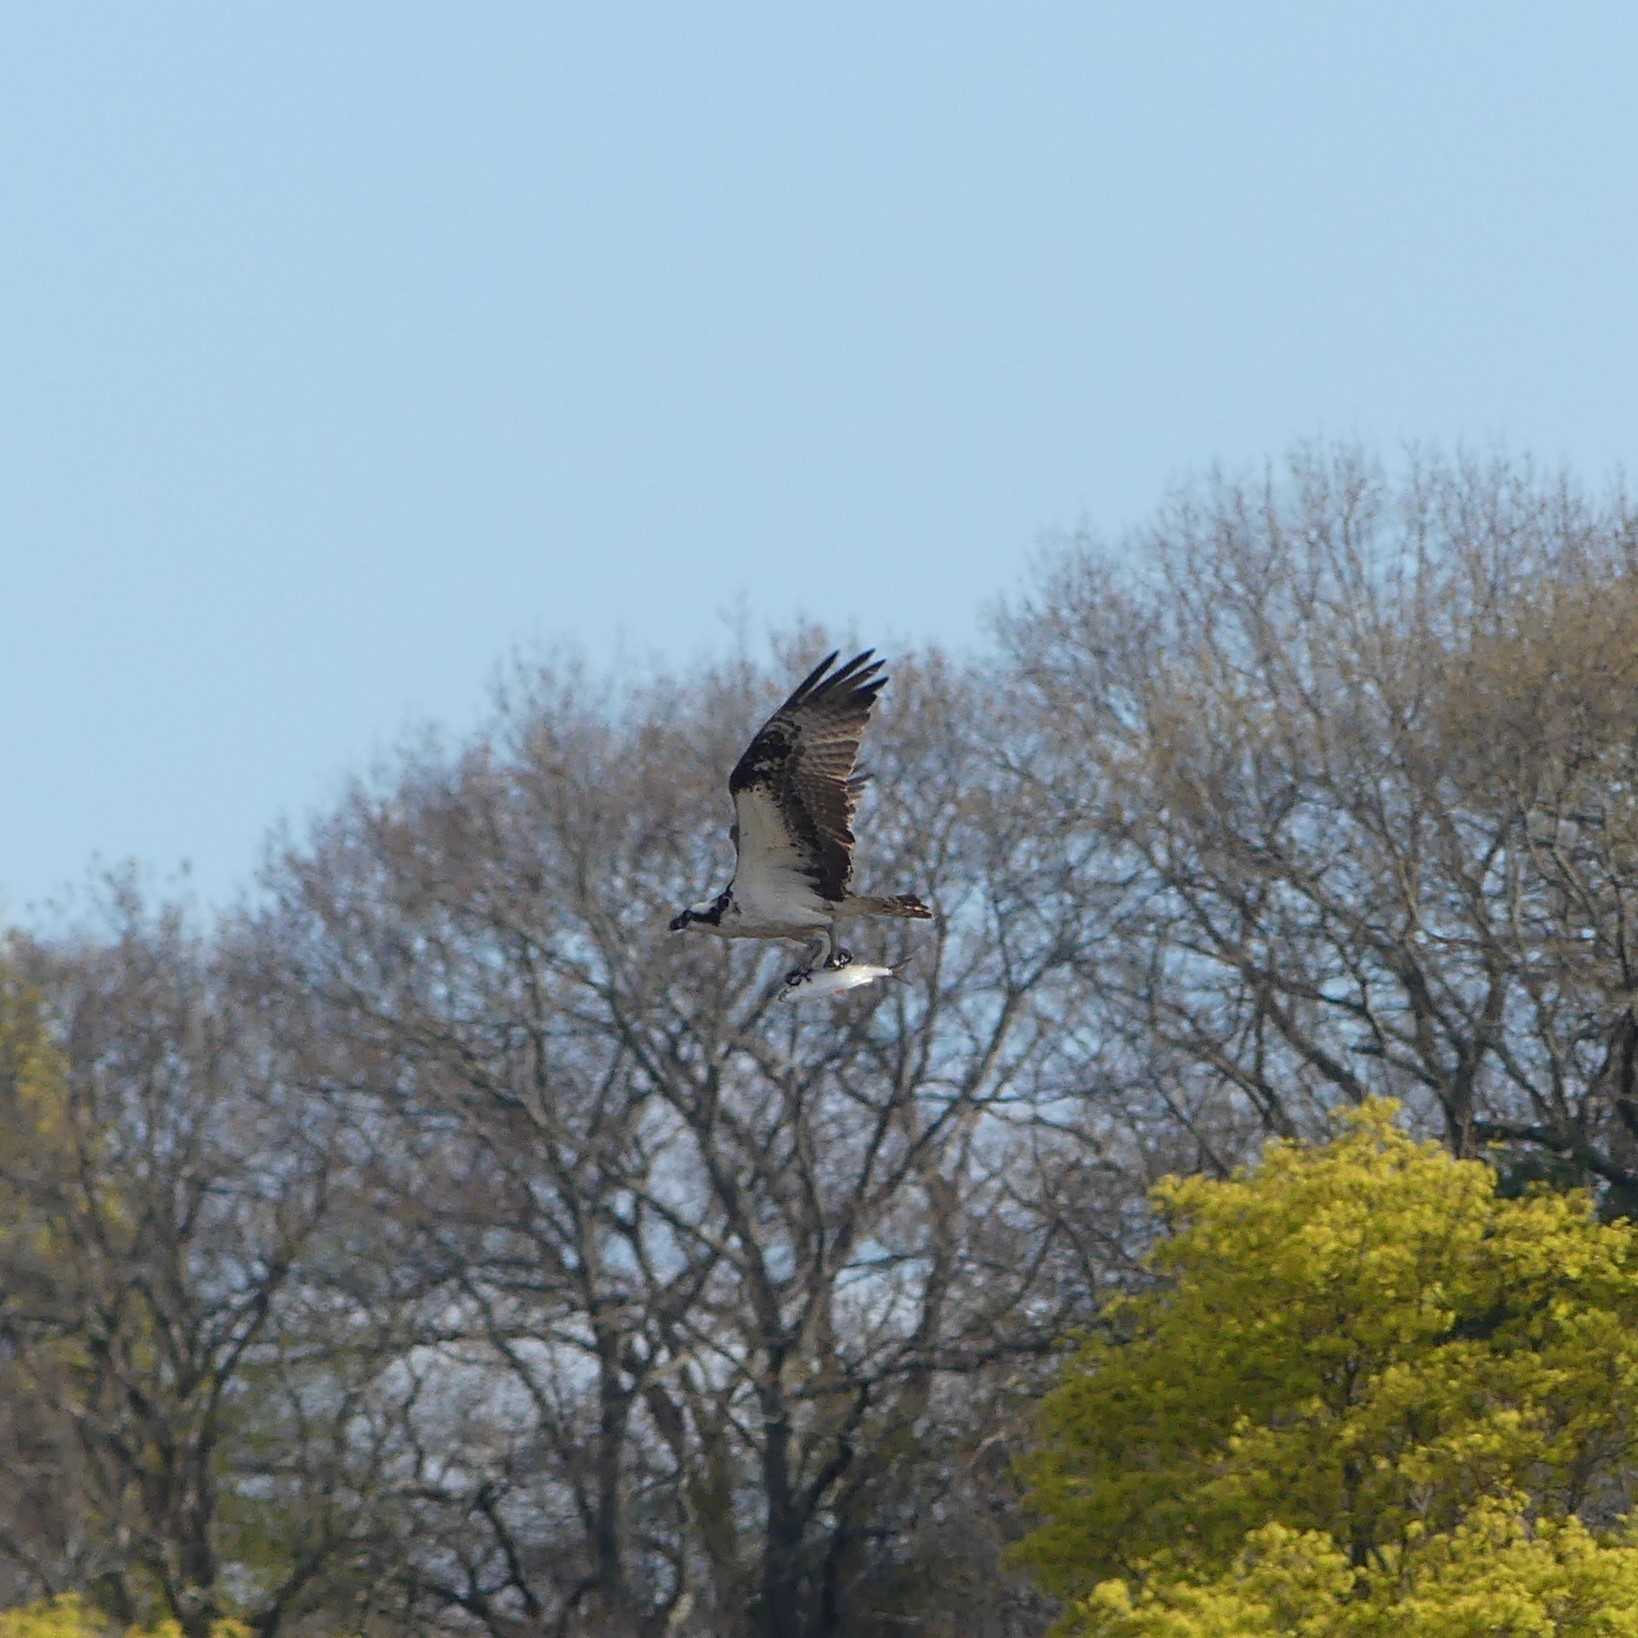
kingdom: Animalia
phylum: Chordata
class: Aves
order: Accipitriformes
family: Pandionidae
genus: Pandion
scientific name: Pandion haliaetus
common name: Osprey
